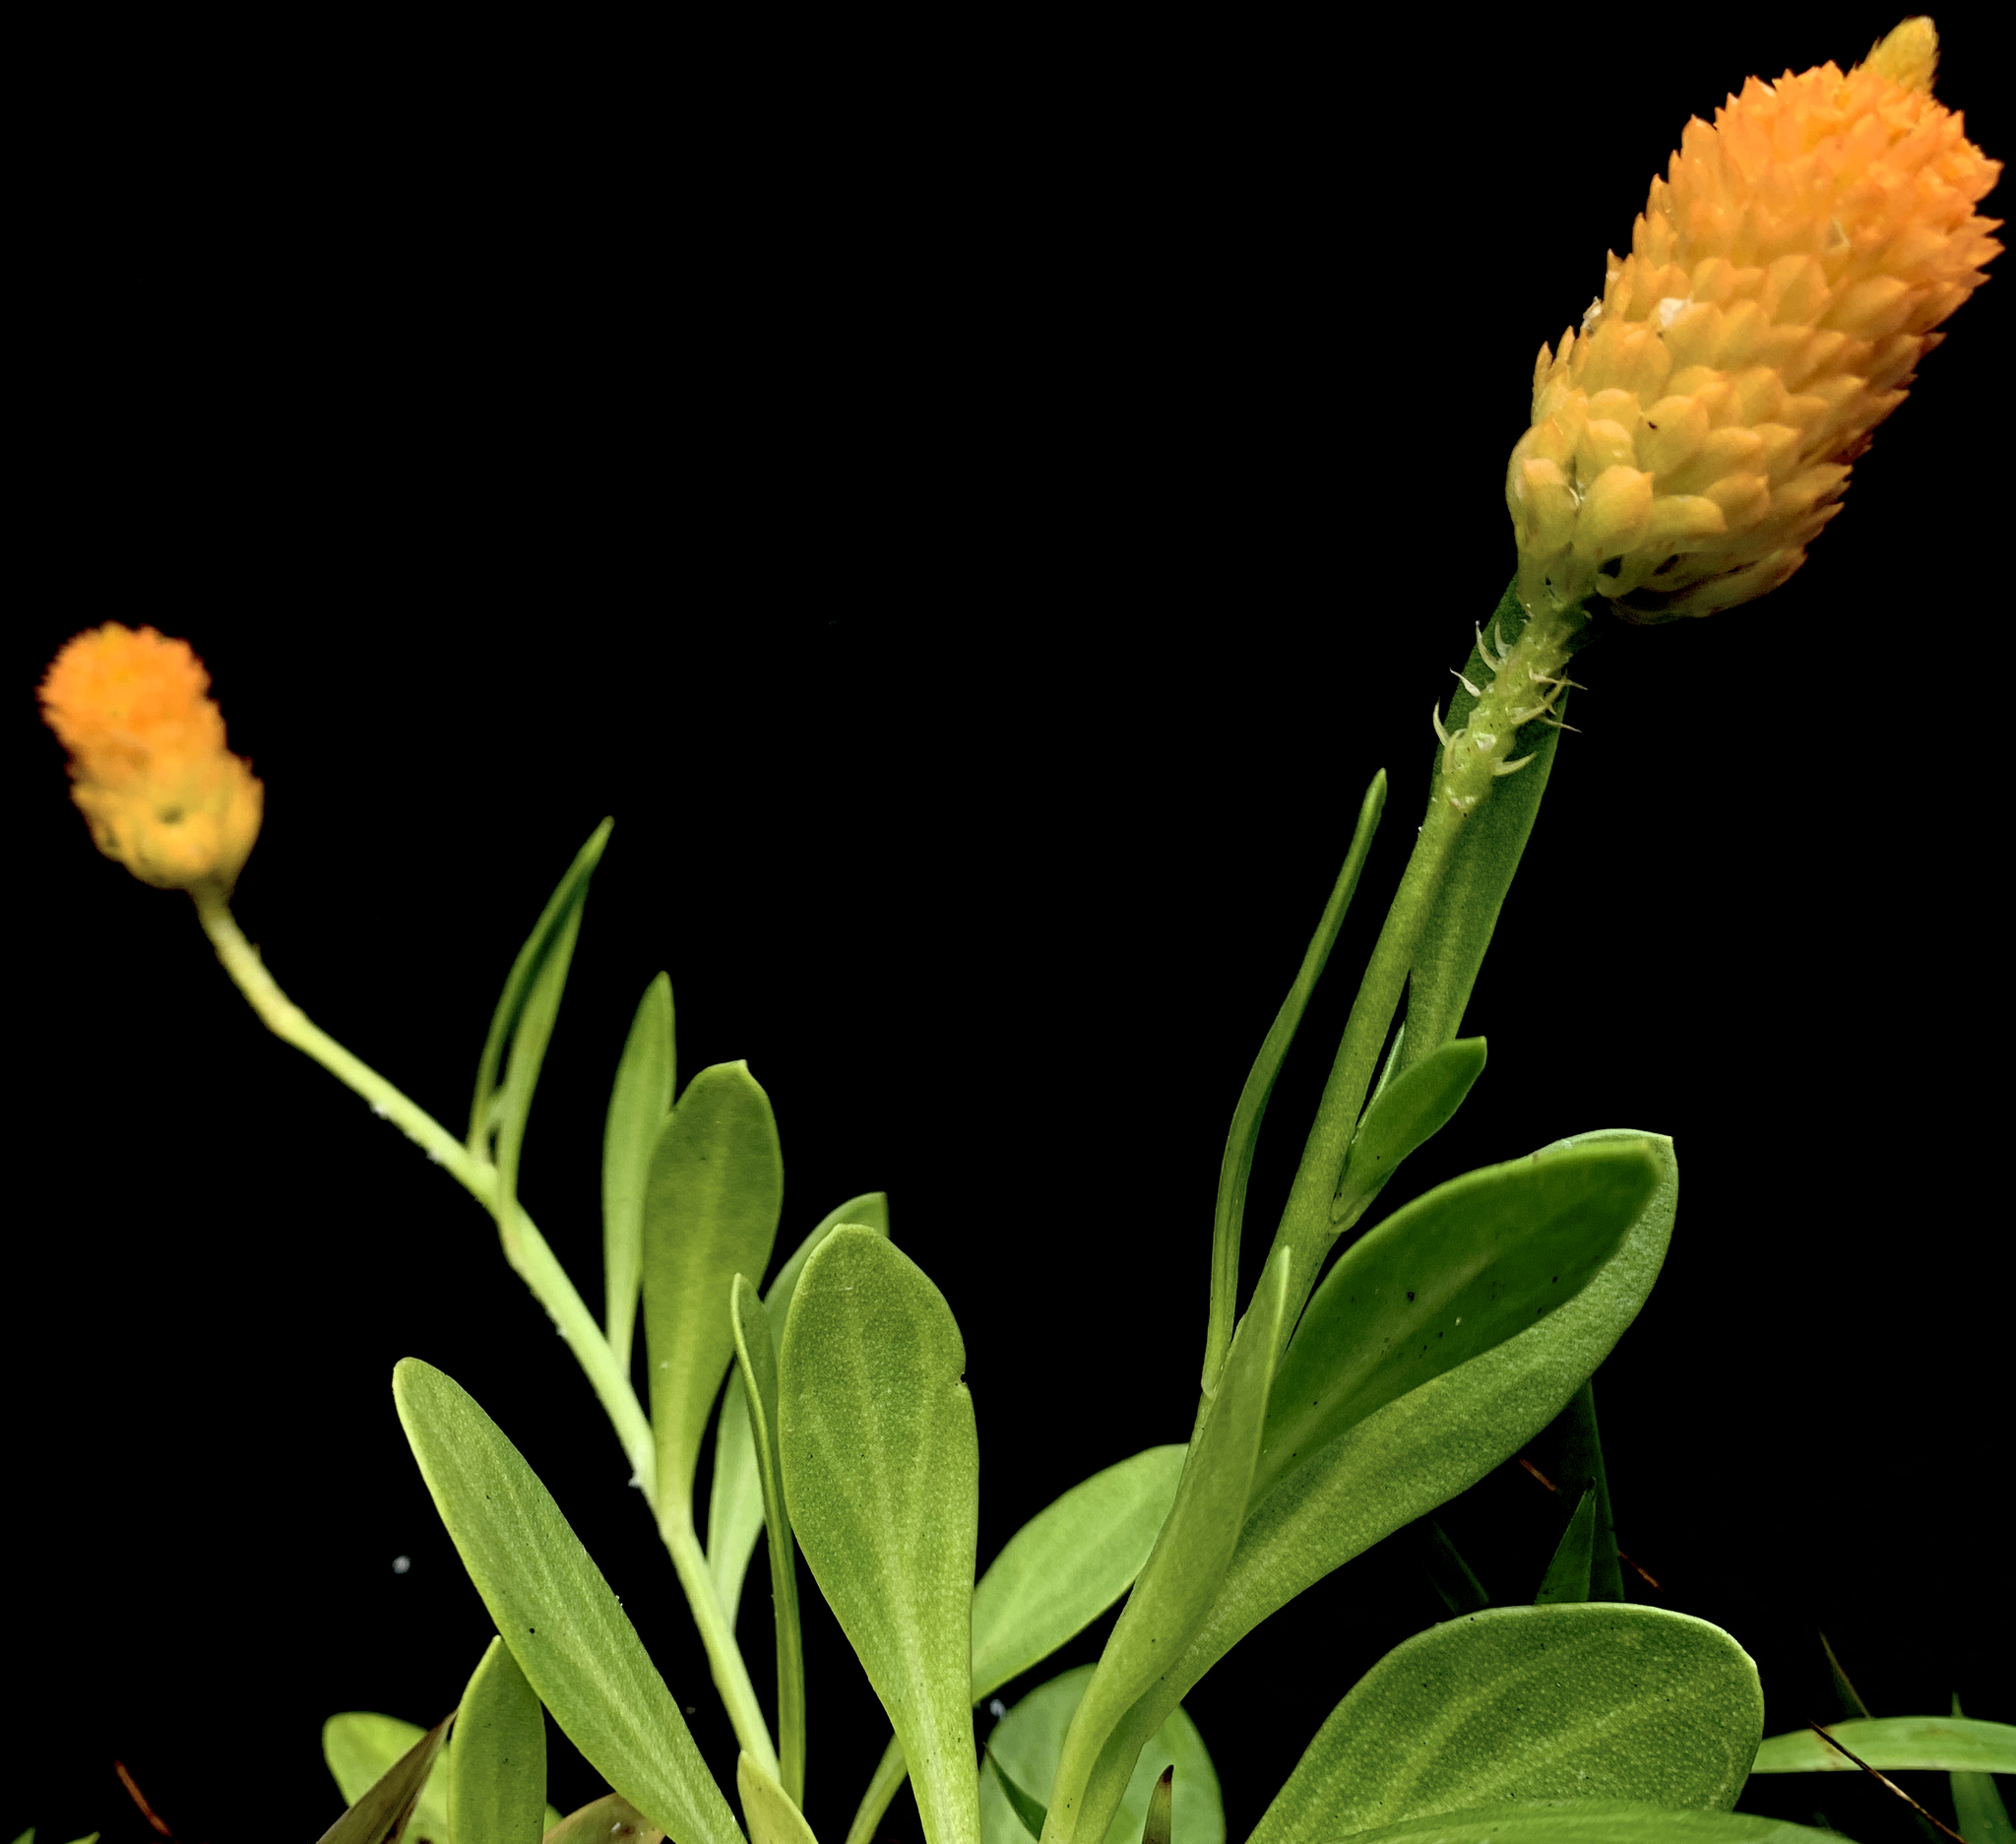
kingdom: Plantae
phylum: Tracheophyta
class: Magnoliopsida
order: Fabales
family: Polygalaceae
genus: Polygala
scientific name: Polygala lutea
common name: Orange milkwort
